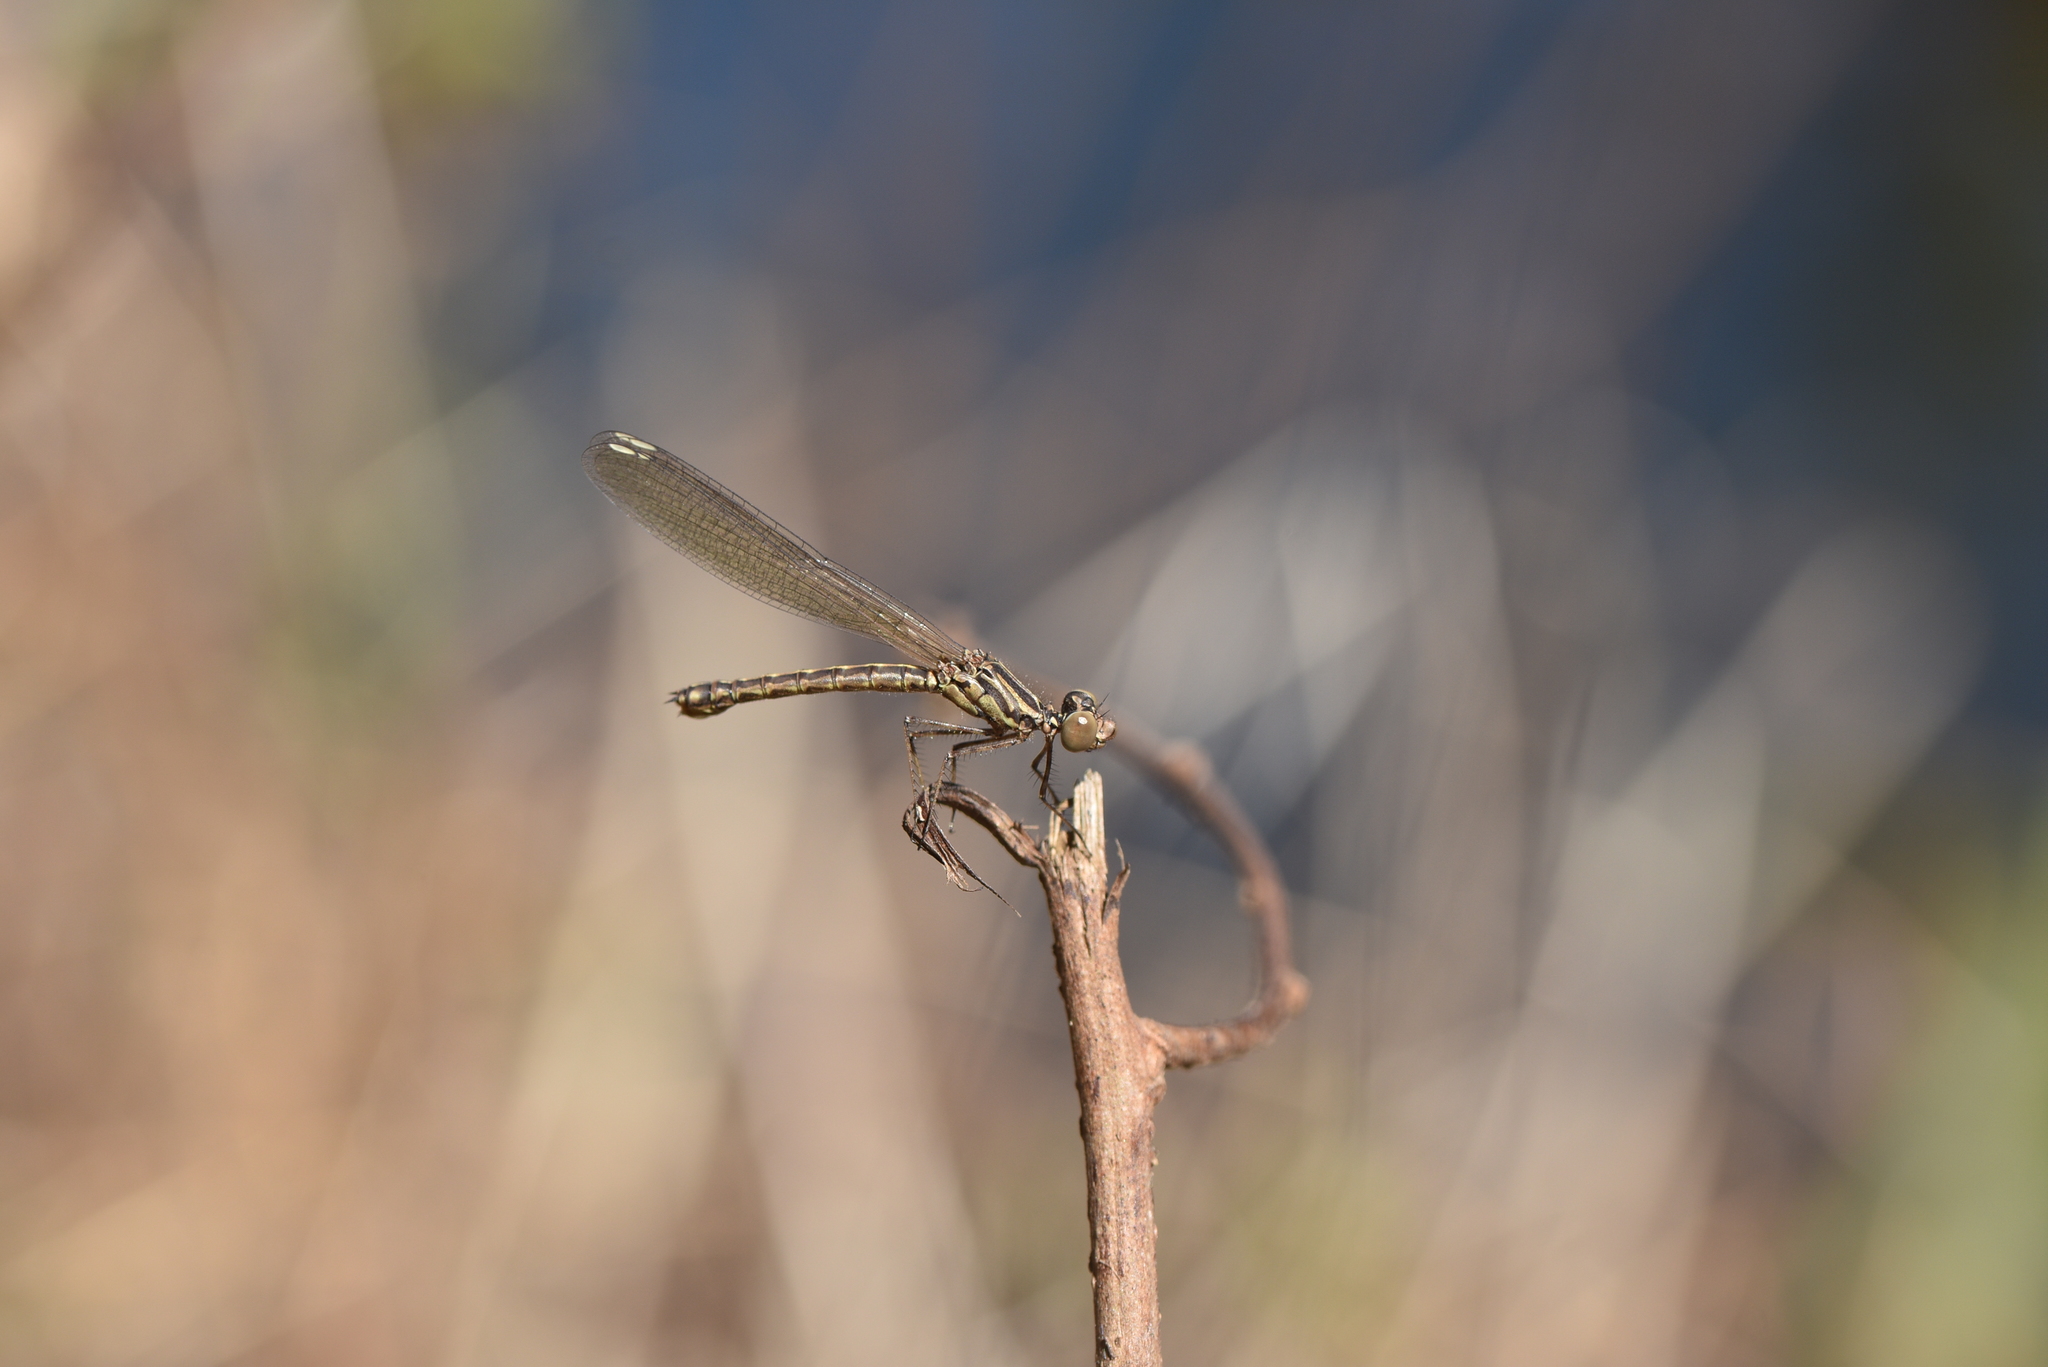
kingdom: Animalia
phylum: Arthropoda
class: Insecta
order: Odonata
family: Chlorocyphidae
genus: Libellago
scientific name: Libellago indica
